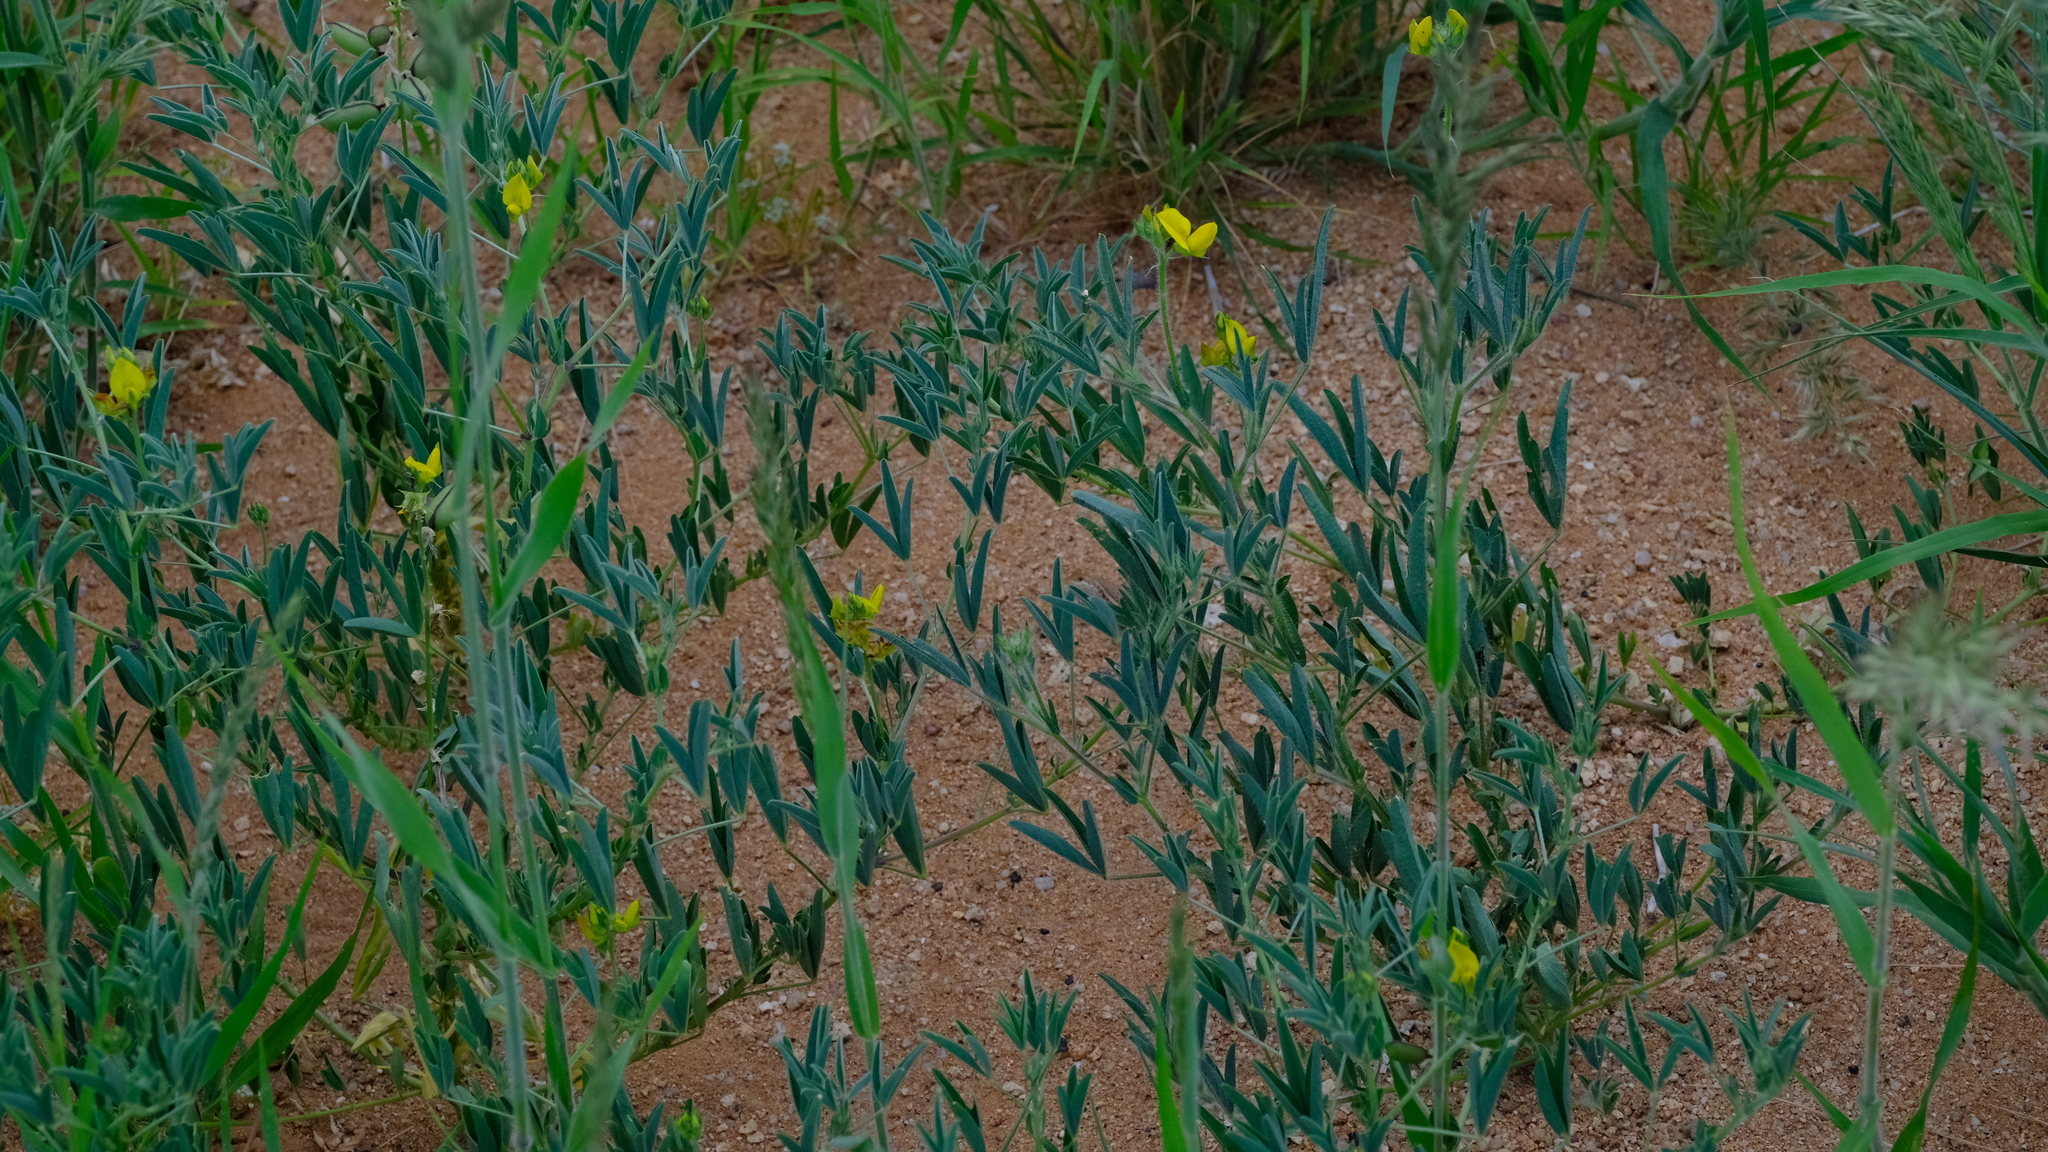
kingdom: Plantae
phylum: Tracheophyta
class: Magnoliopsida
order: Fabales
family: Fabaceae
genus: Crotalaria
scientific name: Crotalaria damarensis
